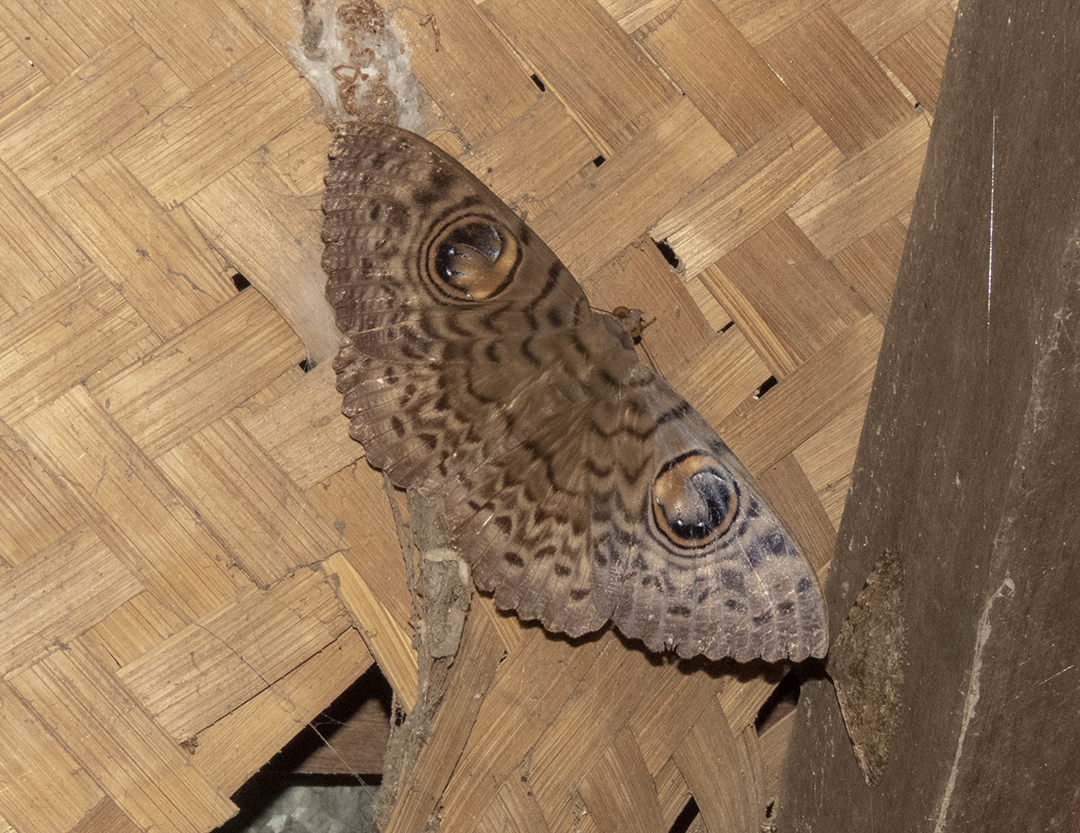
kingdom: Animalia
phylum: Arthropoda
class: Insecta
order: Lepidoptera
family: Erebidae
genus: Erebus
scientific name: Erebus macrops
